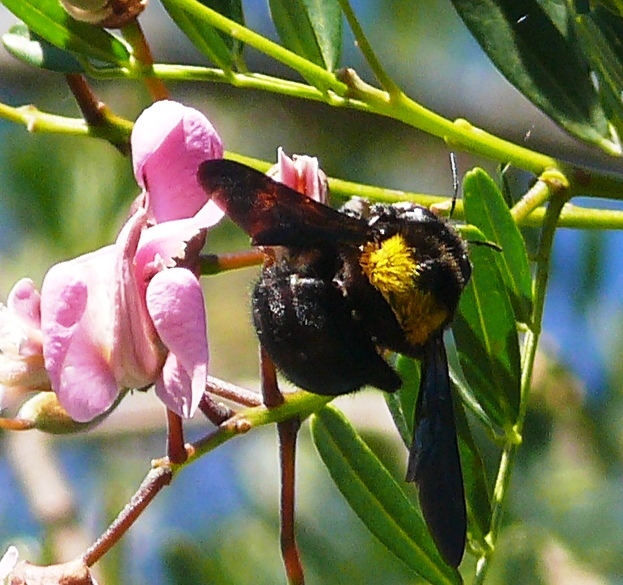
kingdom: Animalia
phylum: Arthropoda
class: Insecta
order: Hymenoptera
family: Apidae
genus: Xylocopa
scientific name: Xylocopa flavicollis
